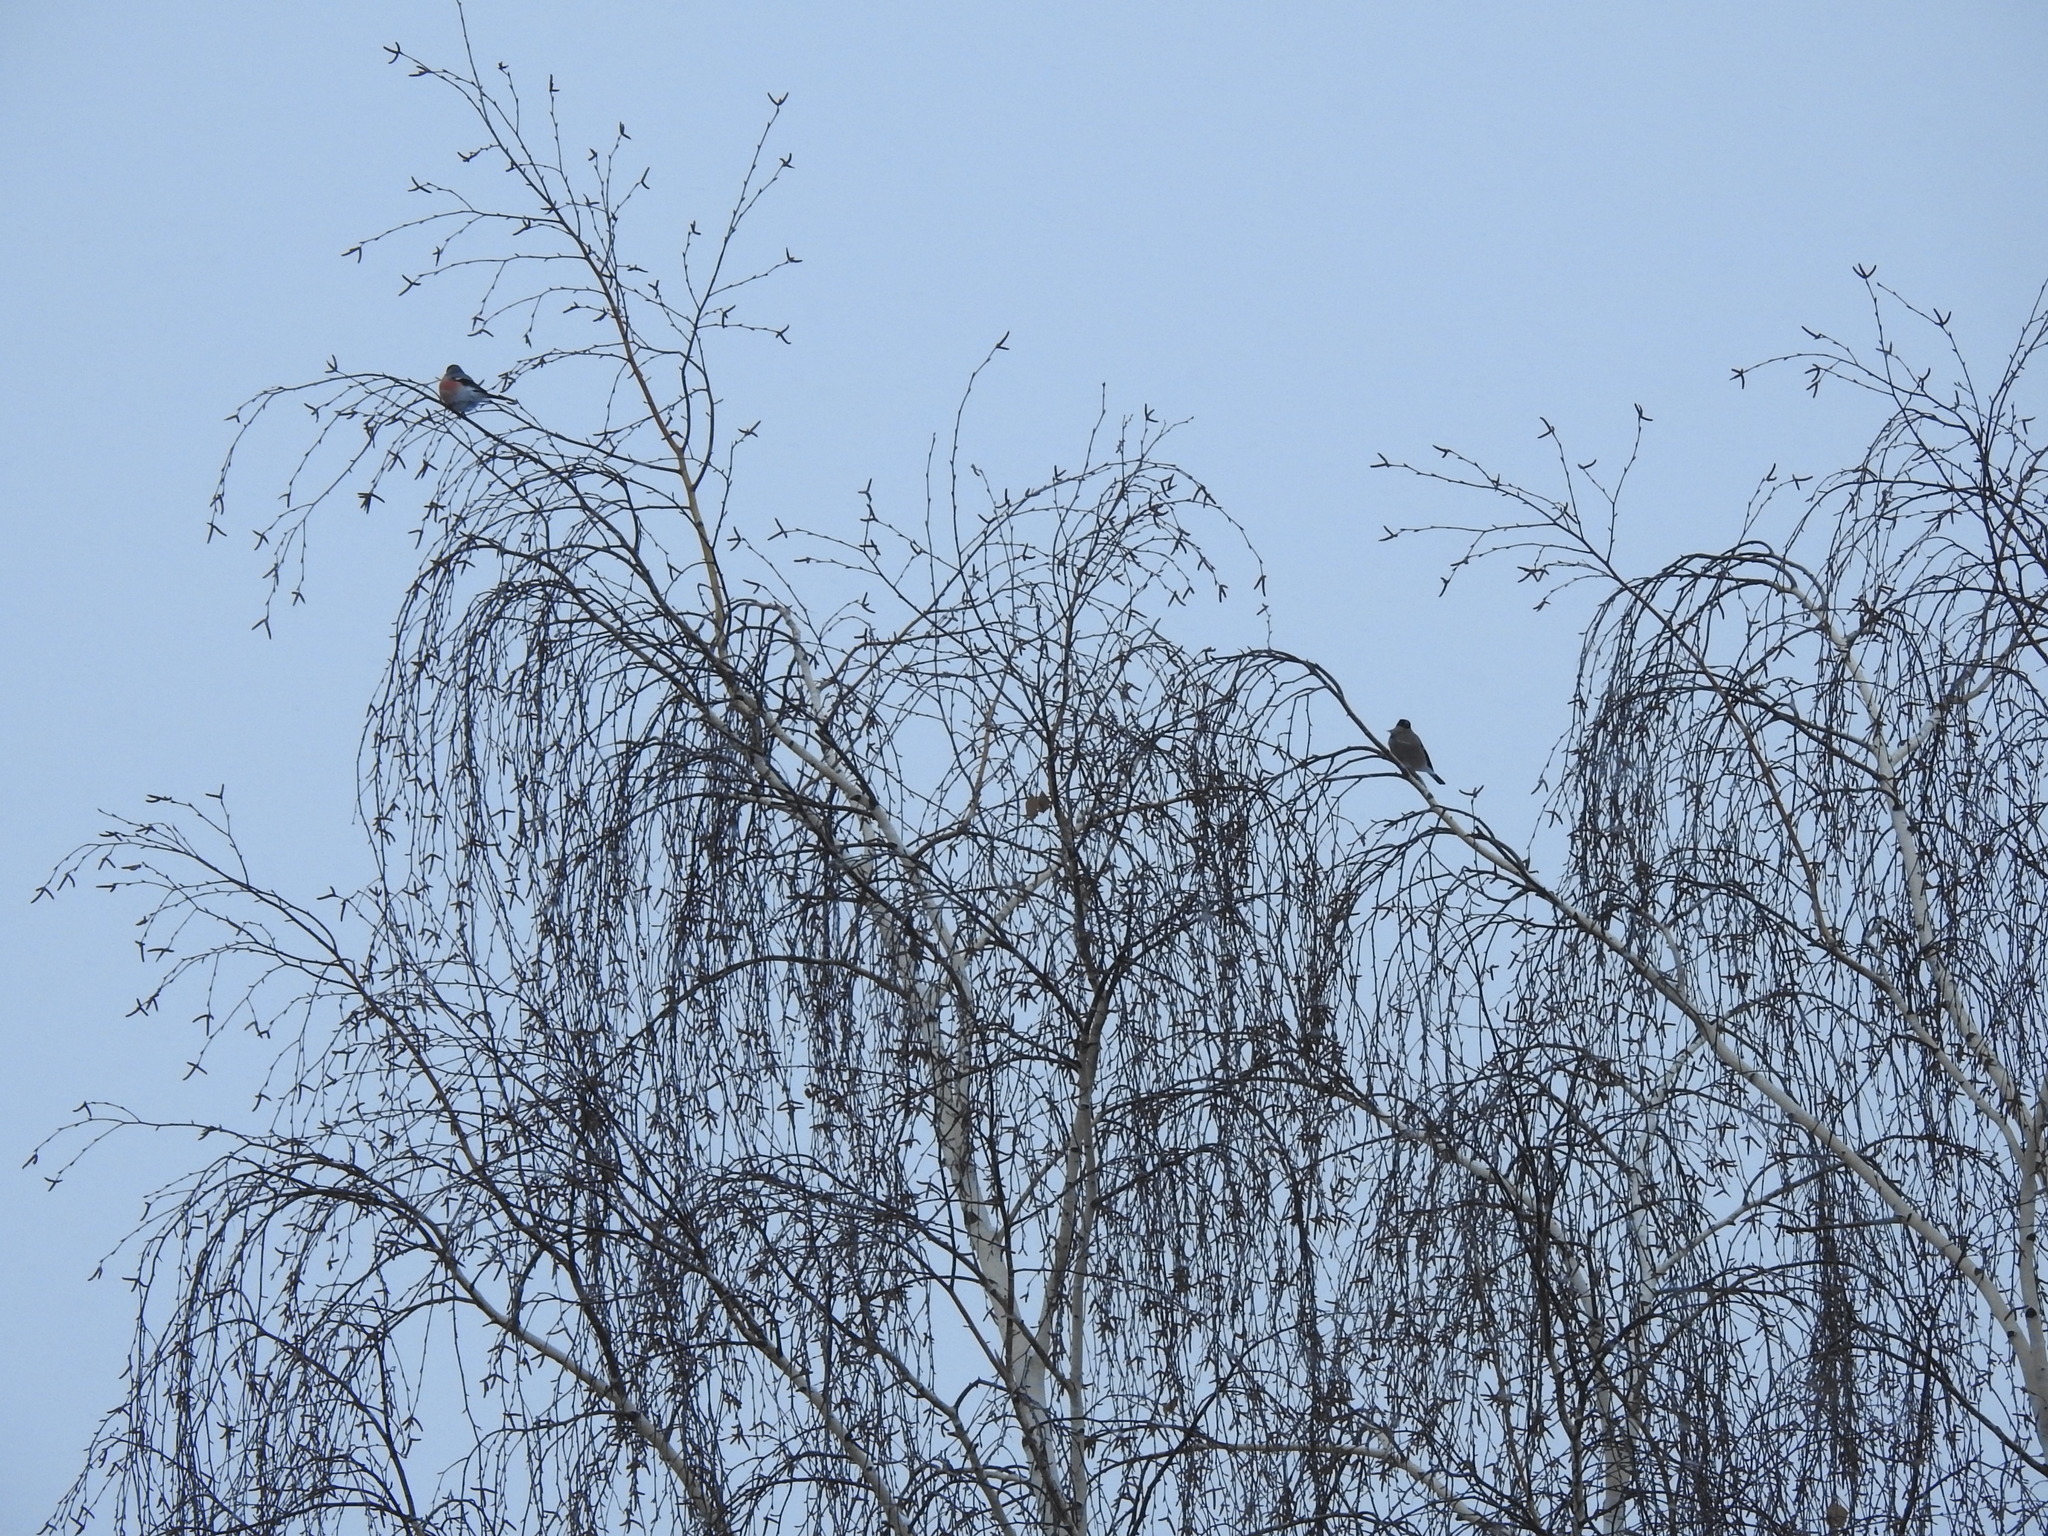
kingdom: Animalia
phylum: Chordata
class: Aves
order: Passeriformes
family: Fringillidae
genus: Pyrrhula
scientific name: Pyrrhula pyrrhula
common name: Eurasian bullfinch
